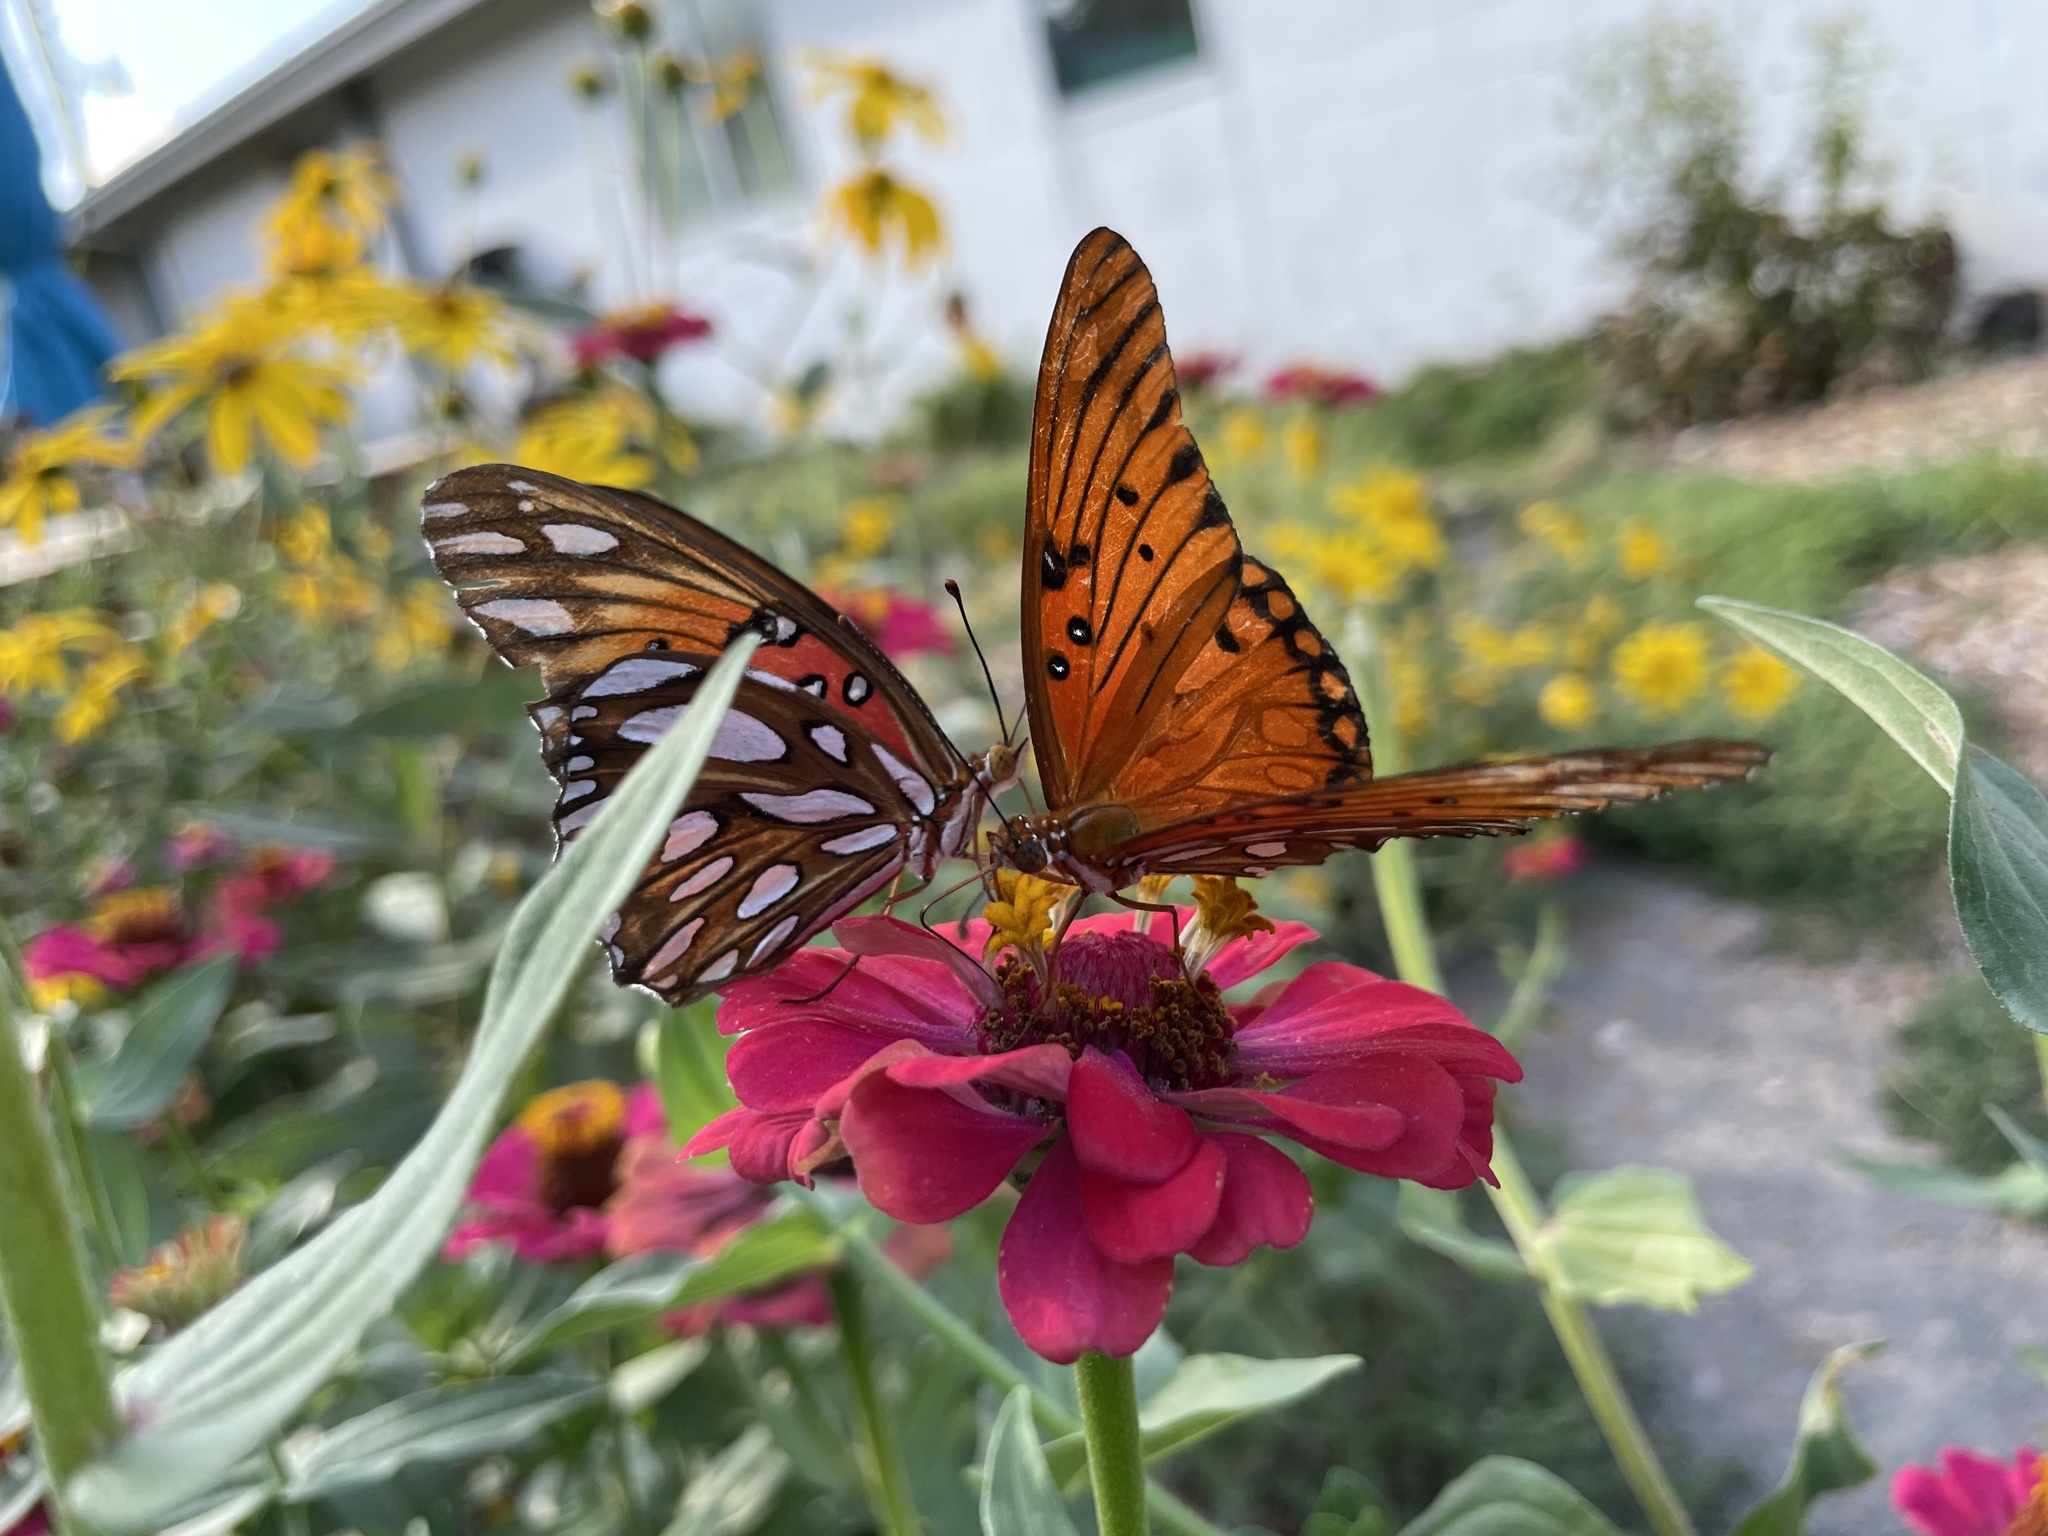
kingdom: Animalia
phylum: Arthropoda
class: Insecta
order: Lepidoptera
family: Nymphalidae
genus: Dione
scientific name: Dione vanillae
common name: Gulf fritillary
